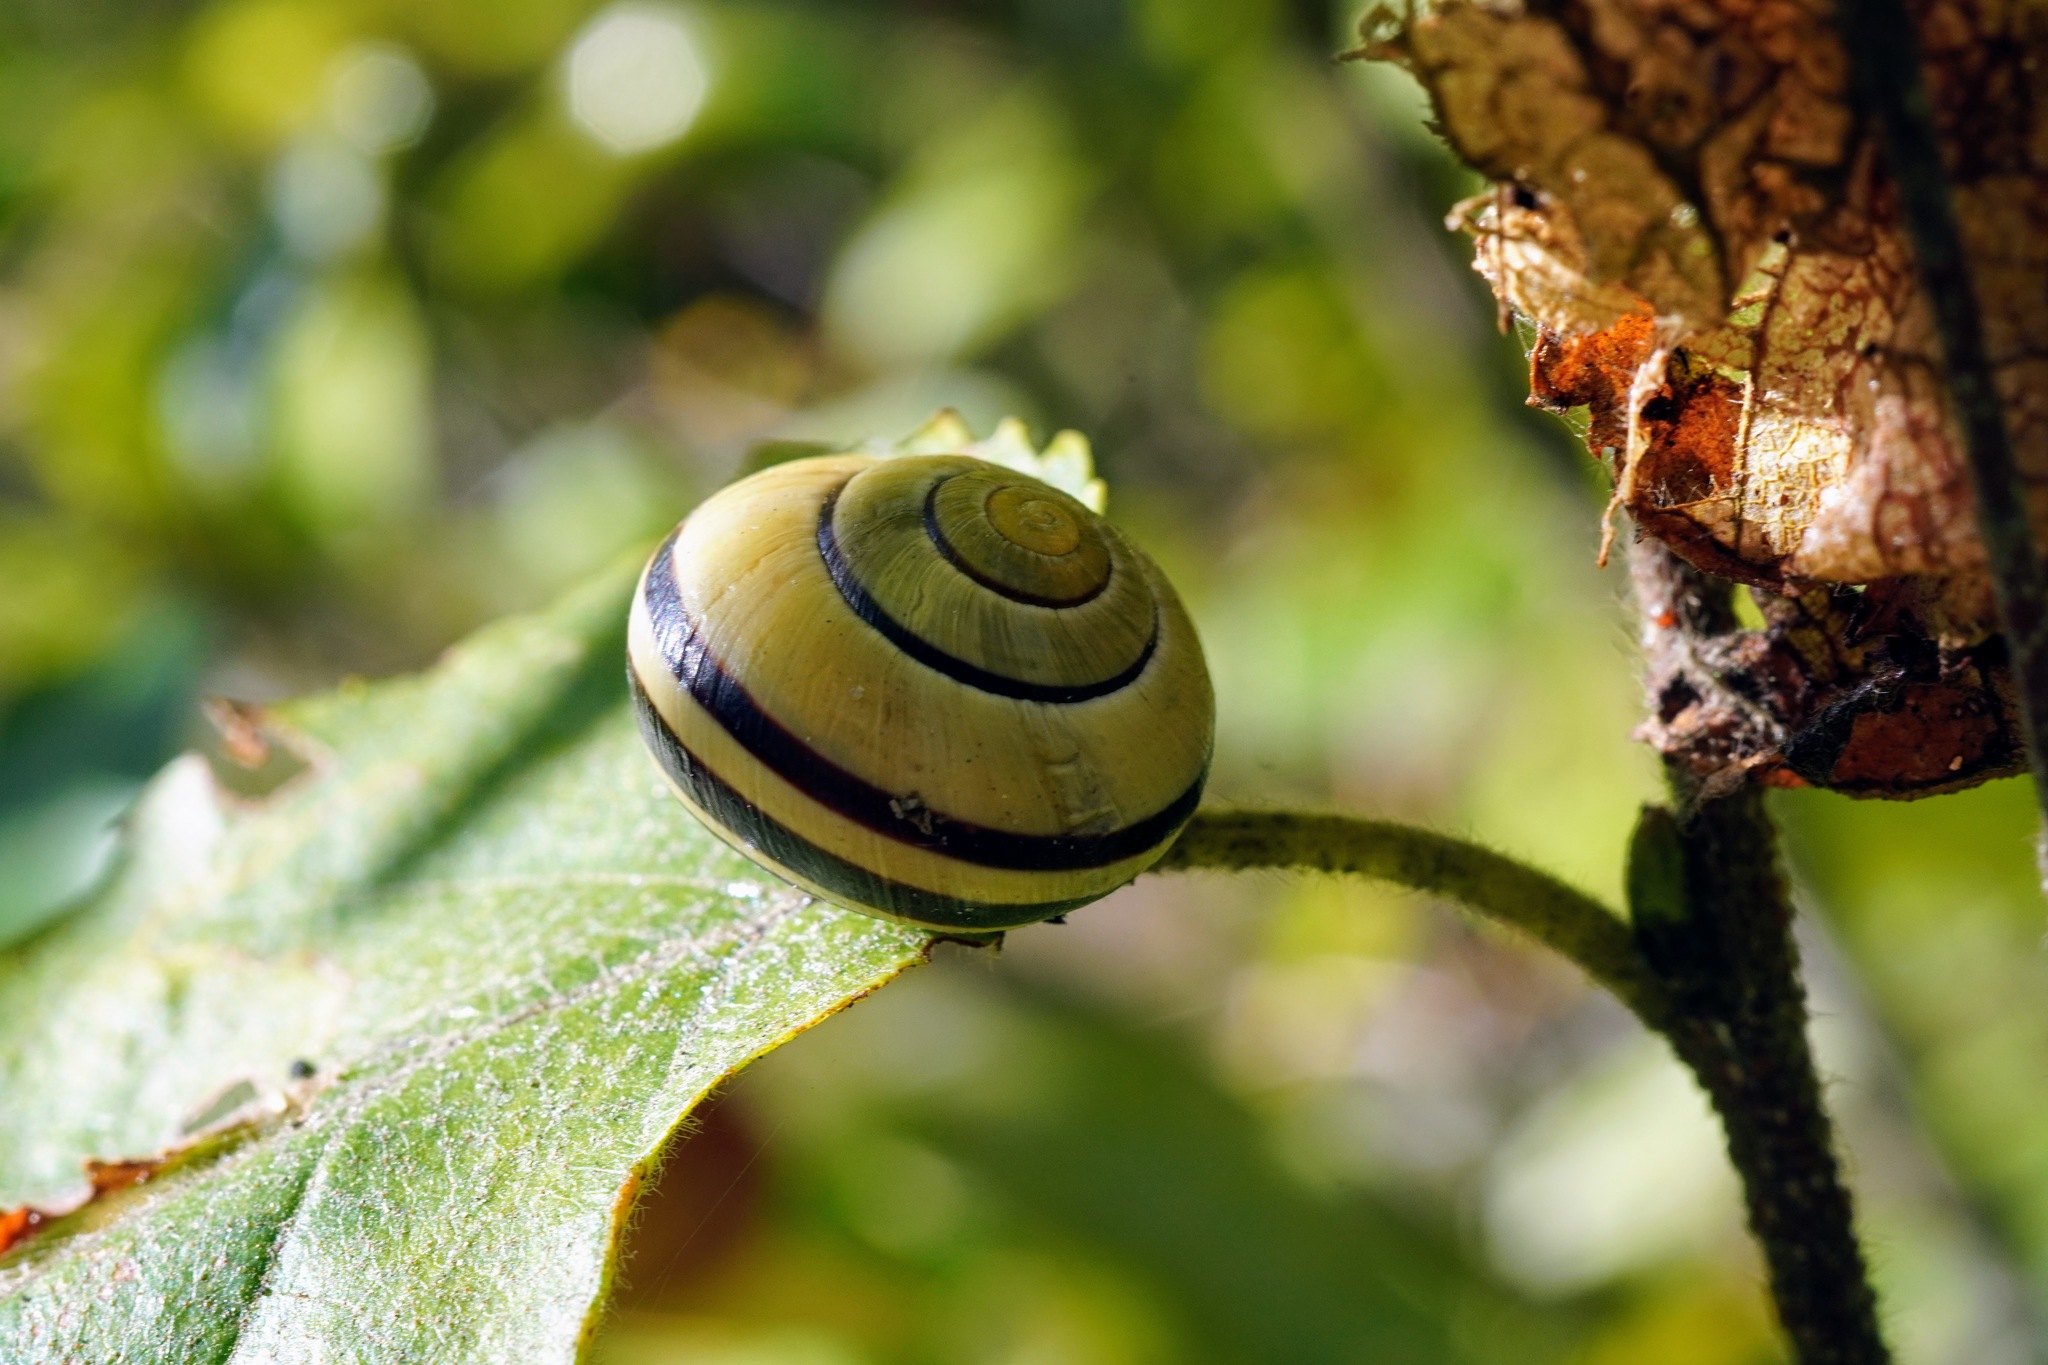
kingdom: Animalia
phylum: Mollusca
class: Gastropoda
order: Stylommatophora
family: Helicidae
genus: Cepaea
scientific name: Cepaea nemoralis
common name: Grovesnail
